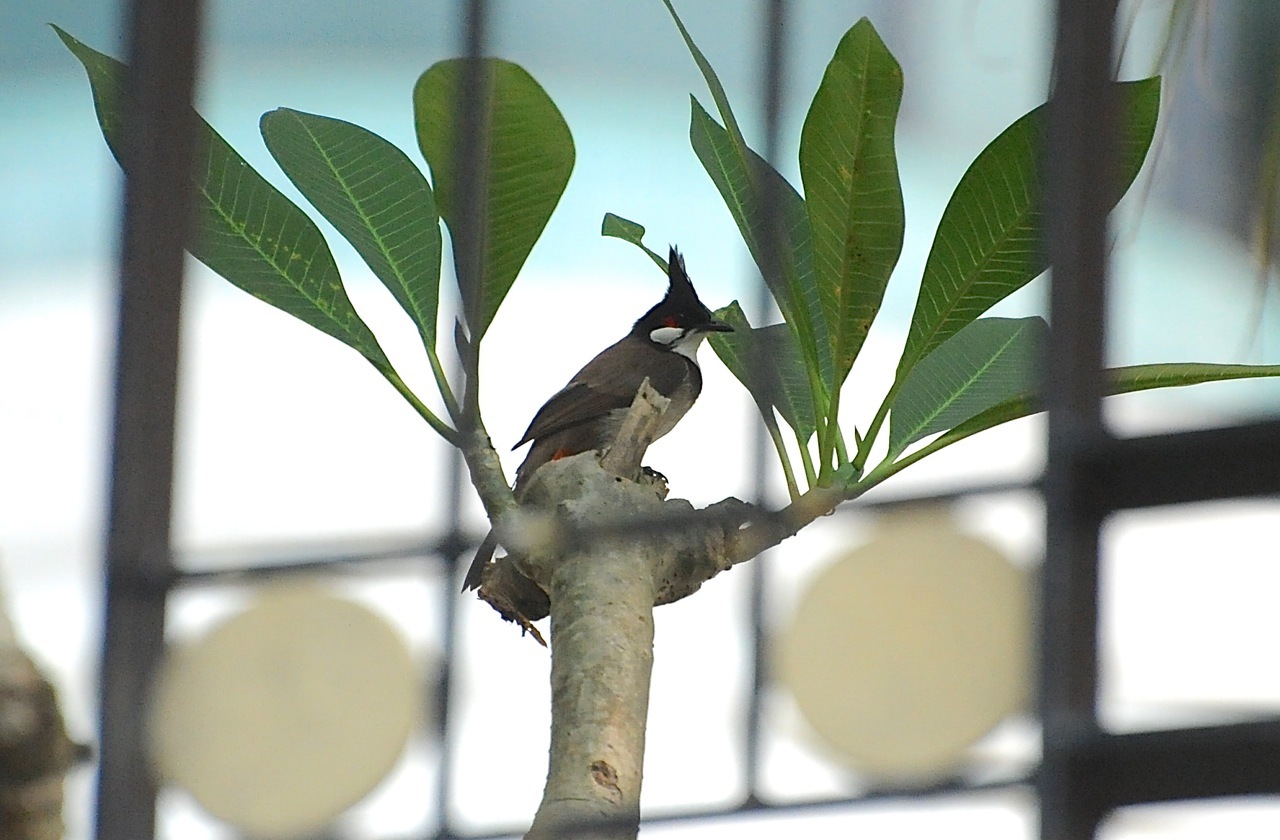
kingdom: Animalia
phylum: Chordata
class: Aves
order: Passeriformes
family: Pycnonotidae
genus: Pycnonotus
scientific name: Pycnonotus jocosus
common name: Red-whiskered bulbul
